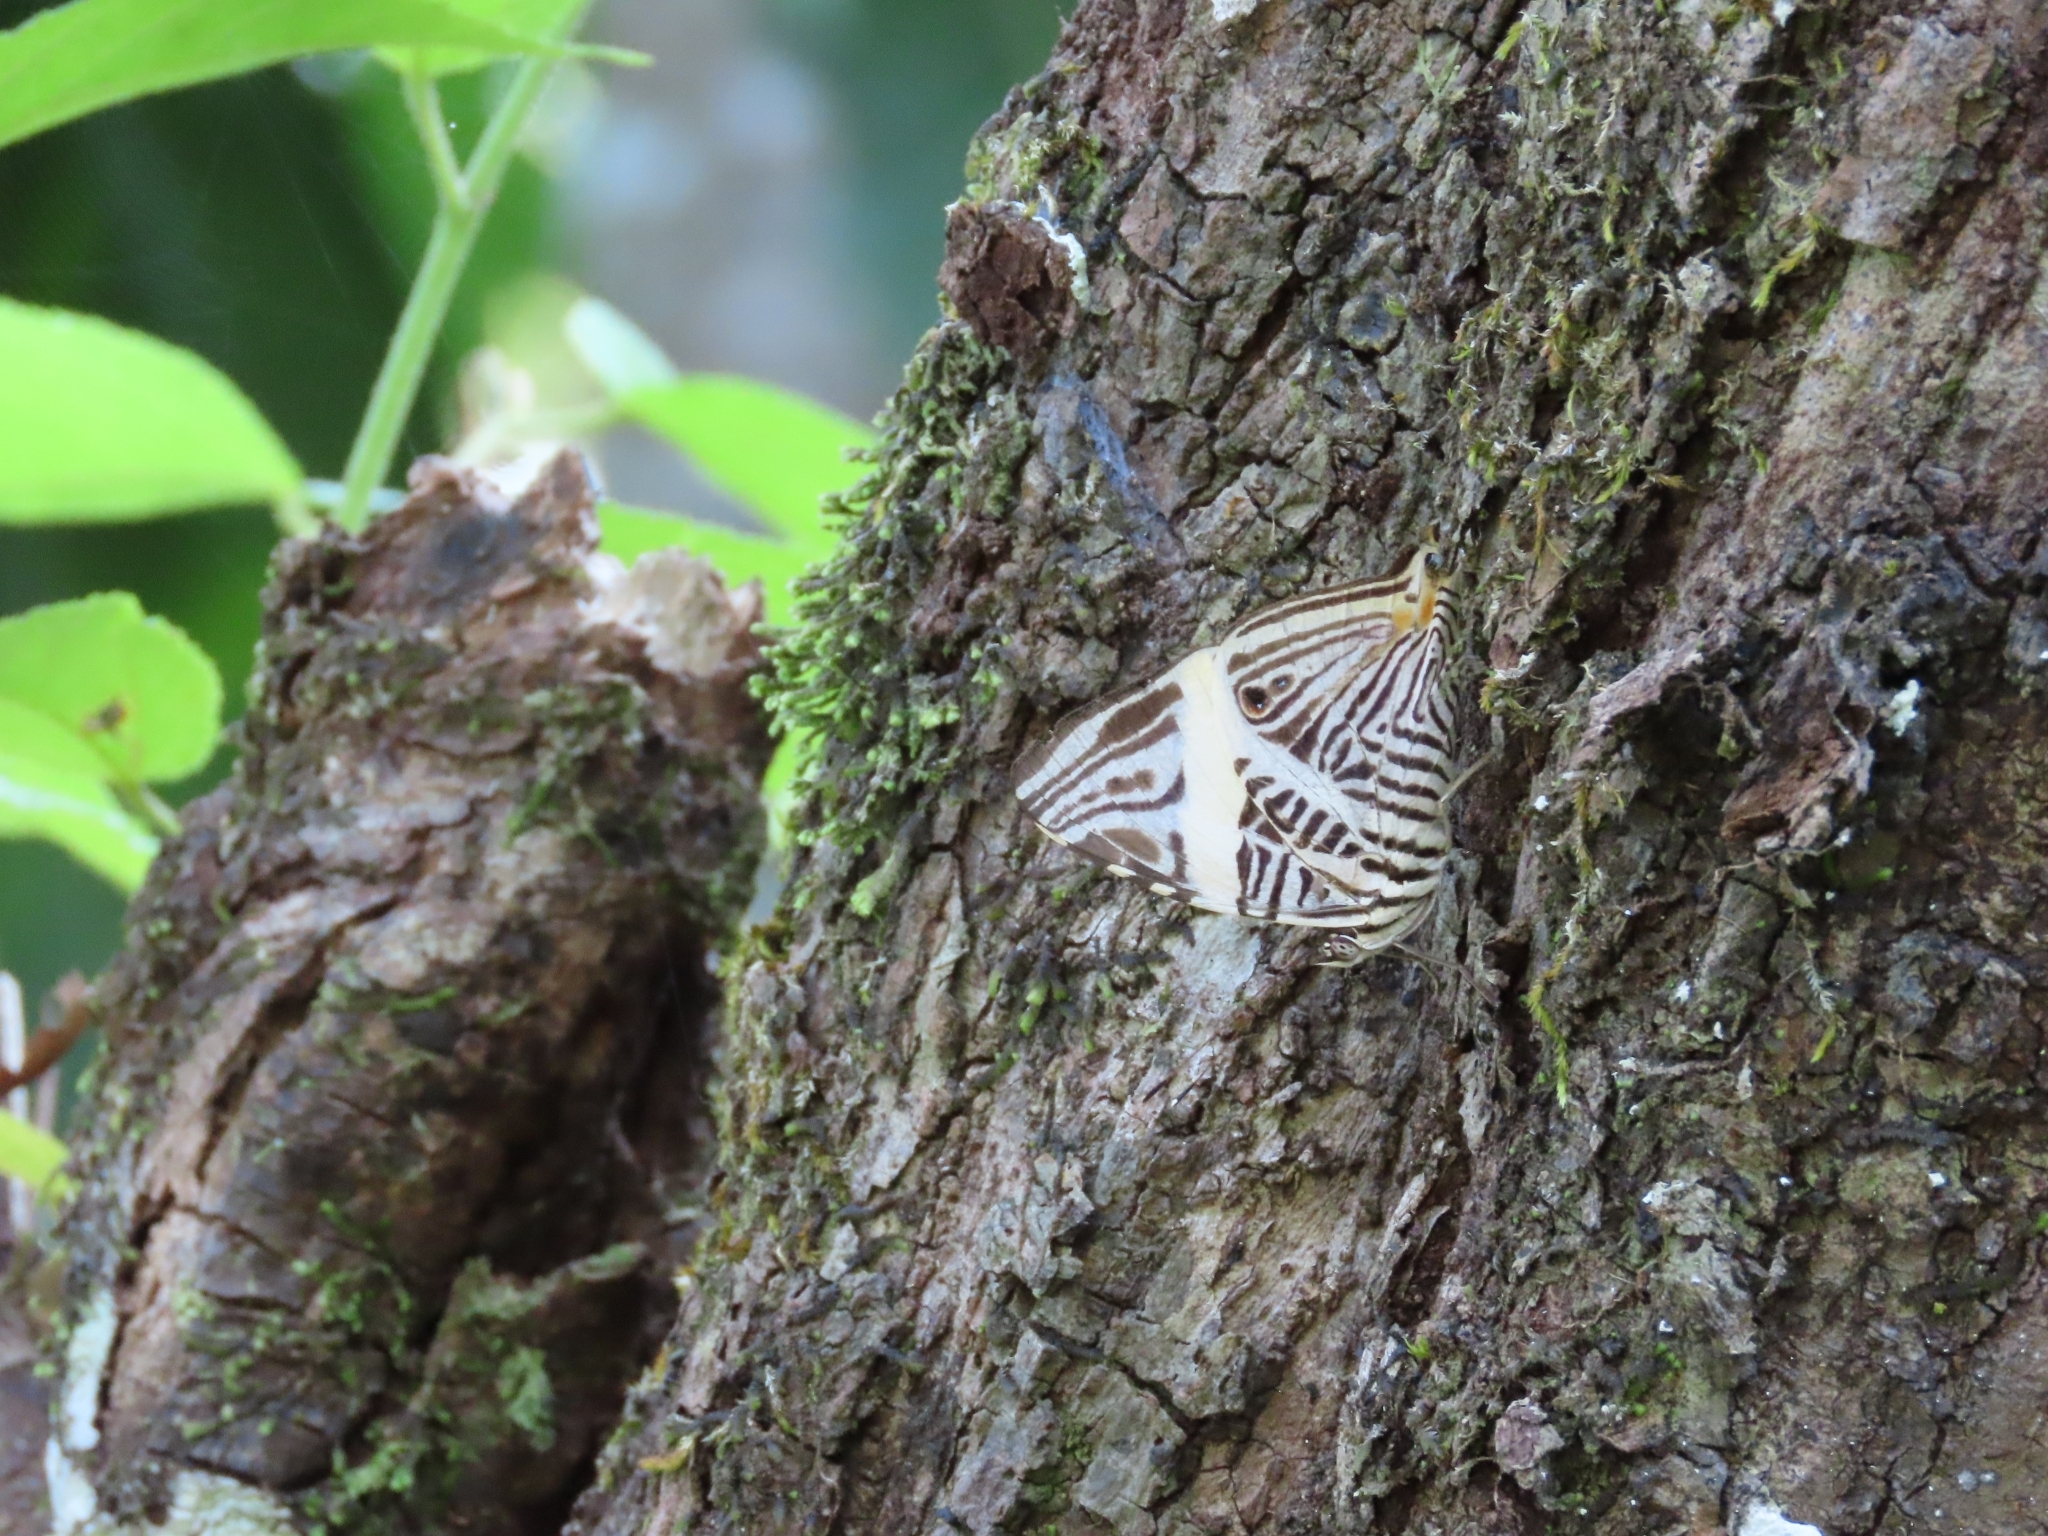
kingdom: Animalia
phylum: Arthropoda
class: Insecta
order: Lepidoptera
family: Nymphalidae
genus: Colobura
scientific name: Colobura dirce
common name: Dirce beauty
